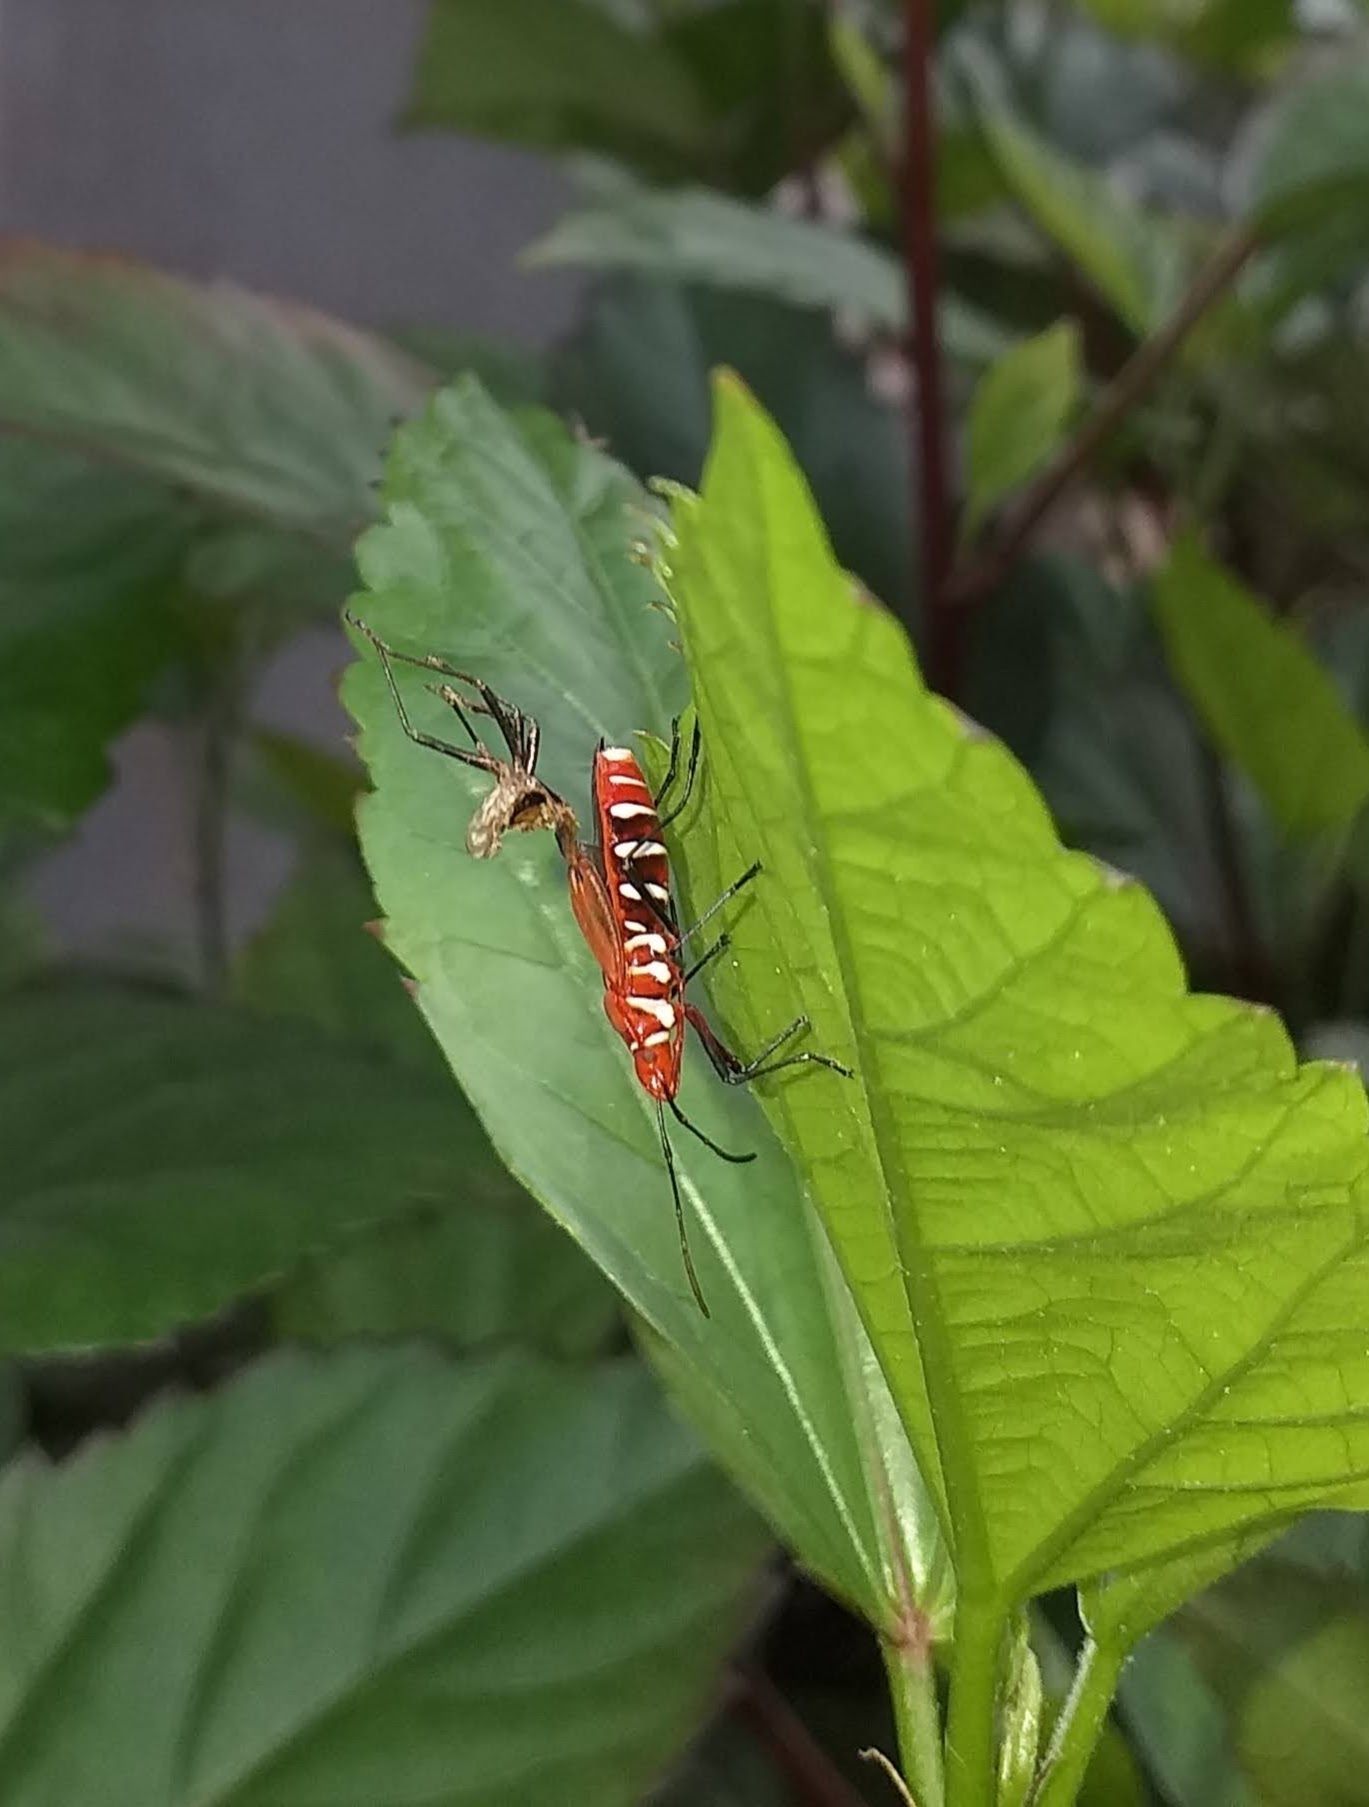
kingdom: Animalia
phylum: Arthropoda
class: Insecta
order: Hemiptera
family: Pyrrhocoridae
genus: Dysdercus
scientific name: Dysdercus cingulatus
